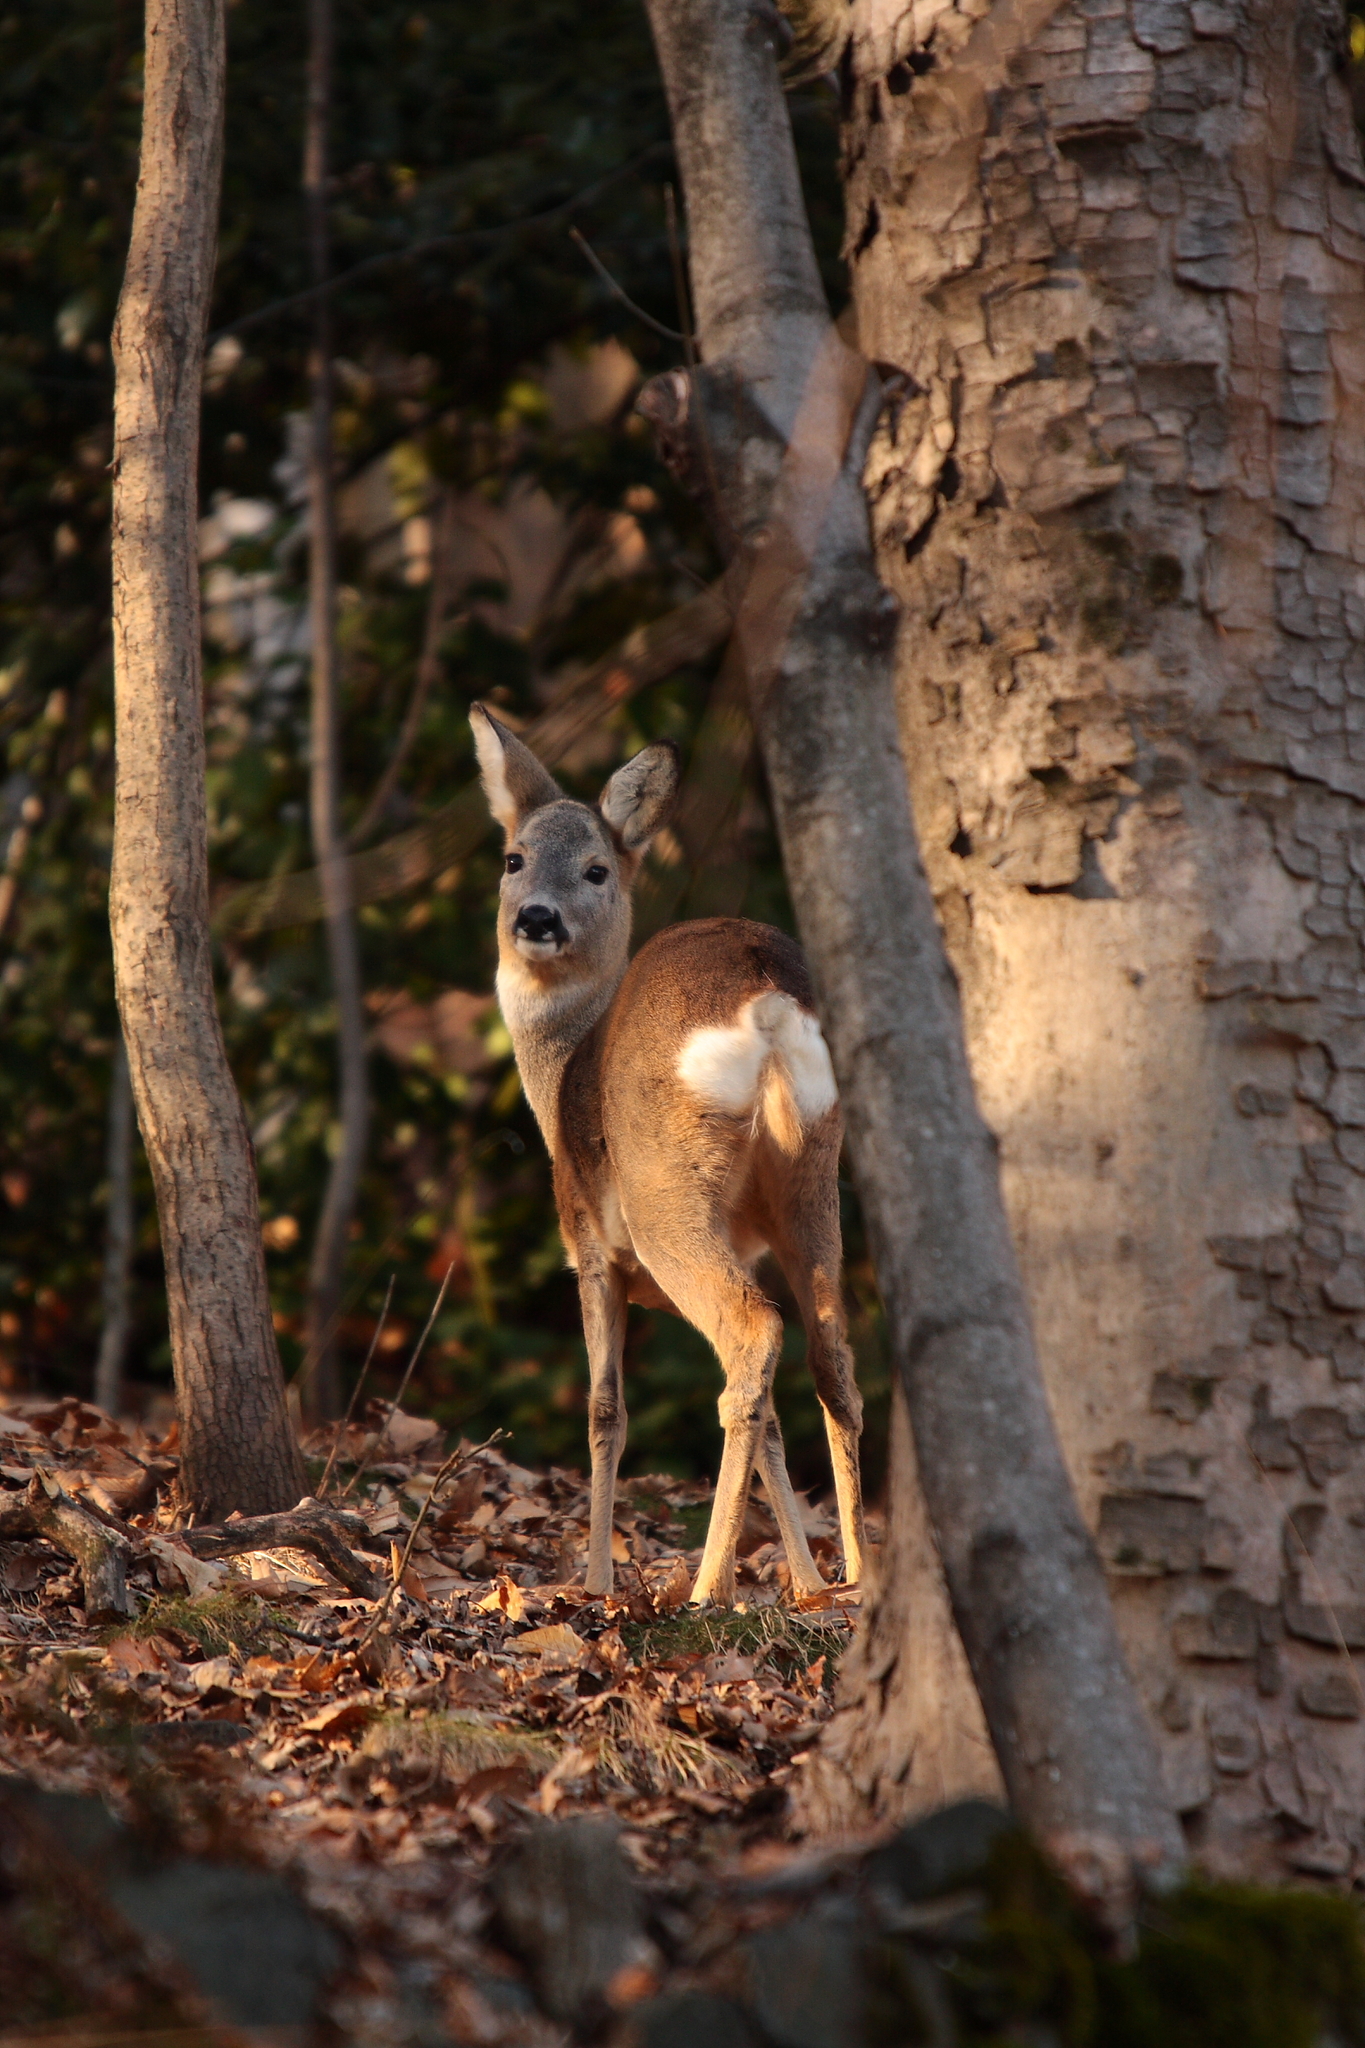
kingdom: Animalia
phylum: Chordata
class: Mammalia
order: Artiodactyla
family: Cervidae
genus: Capreolus
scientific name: Capreolus capreolus
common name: Western roe deer
